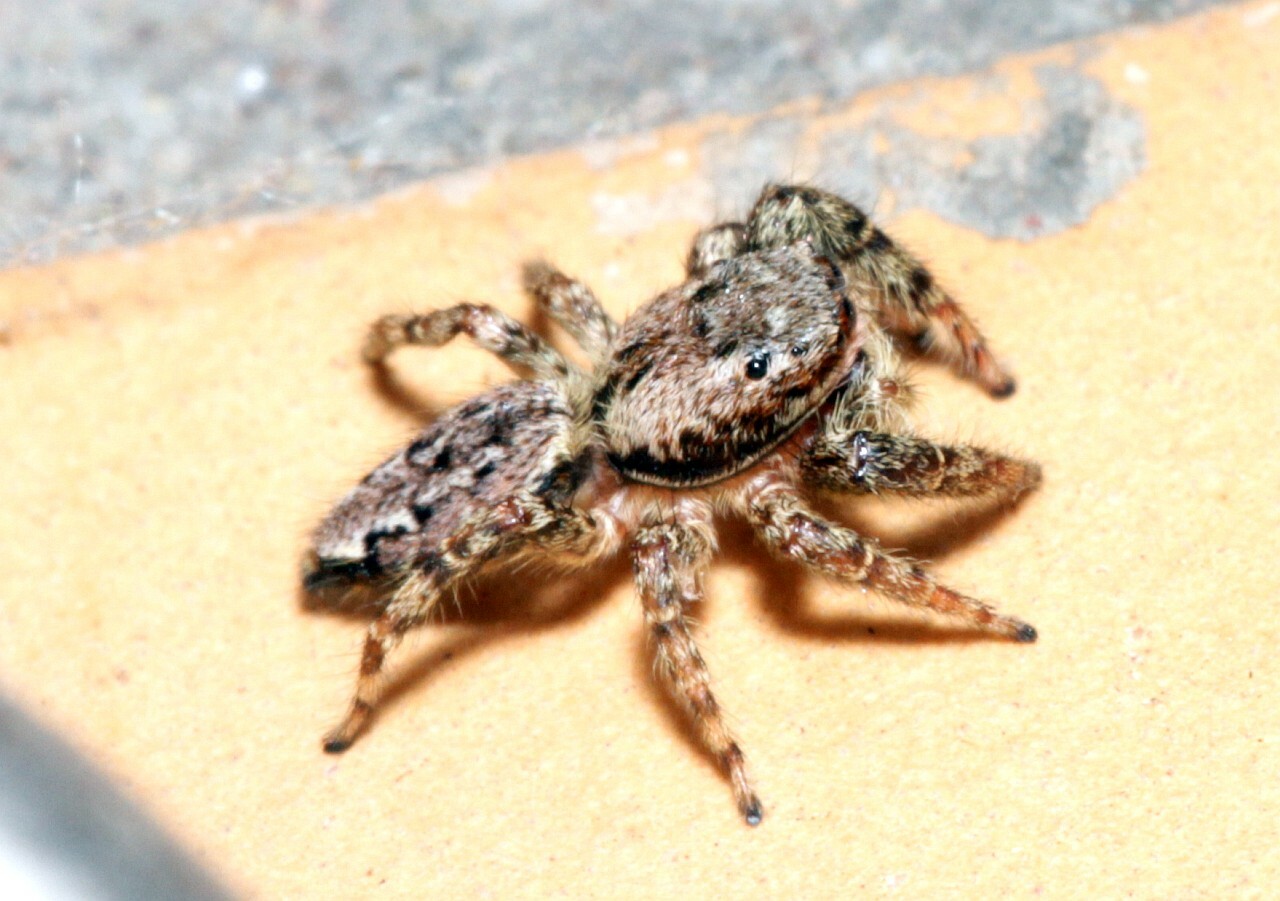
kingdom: Animalia
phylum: Arthropoda
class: Arachnida
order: Araneae
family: Salticidae
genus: Marpissa
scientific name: Marpissa muscosa
